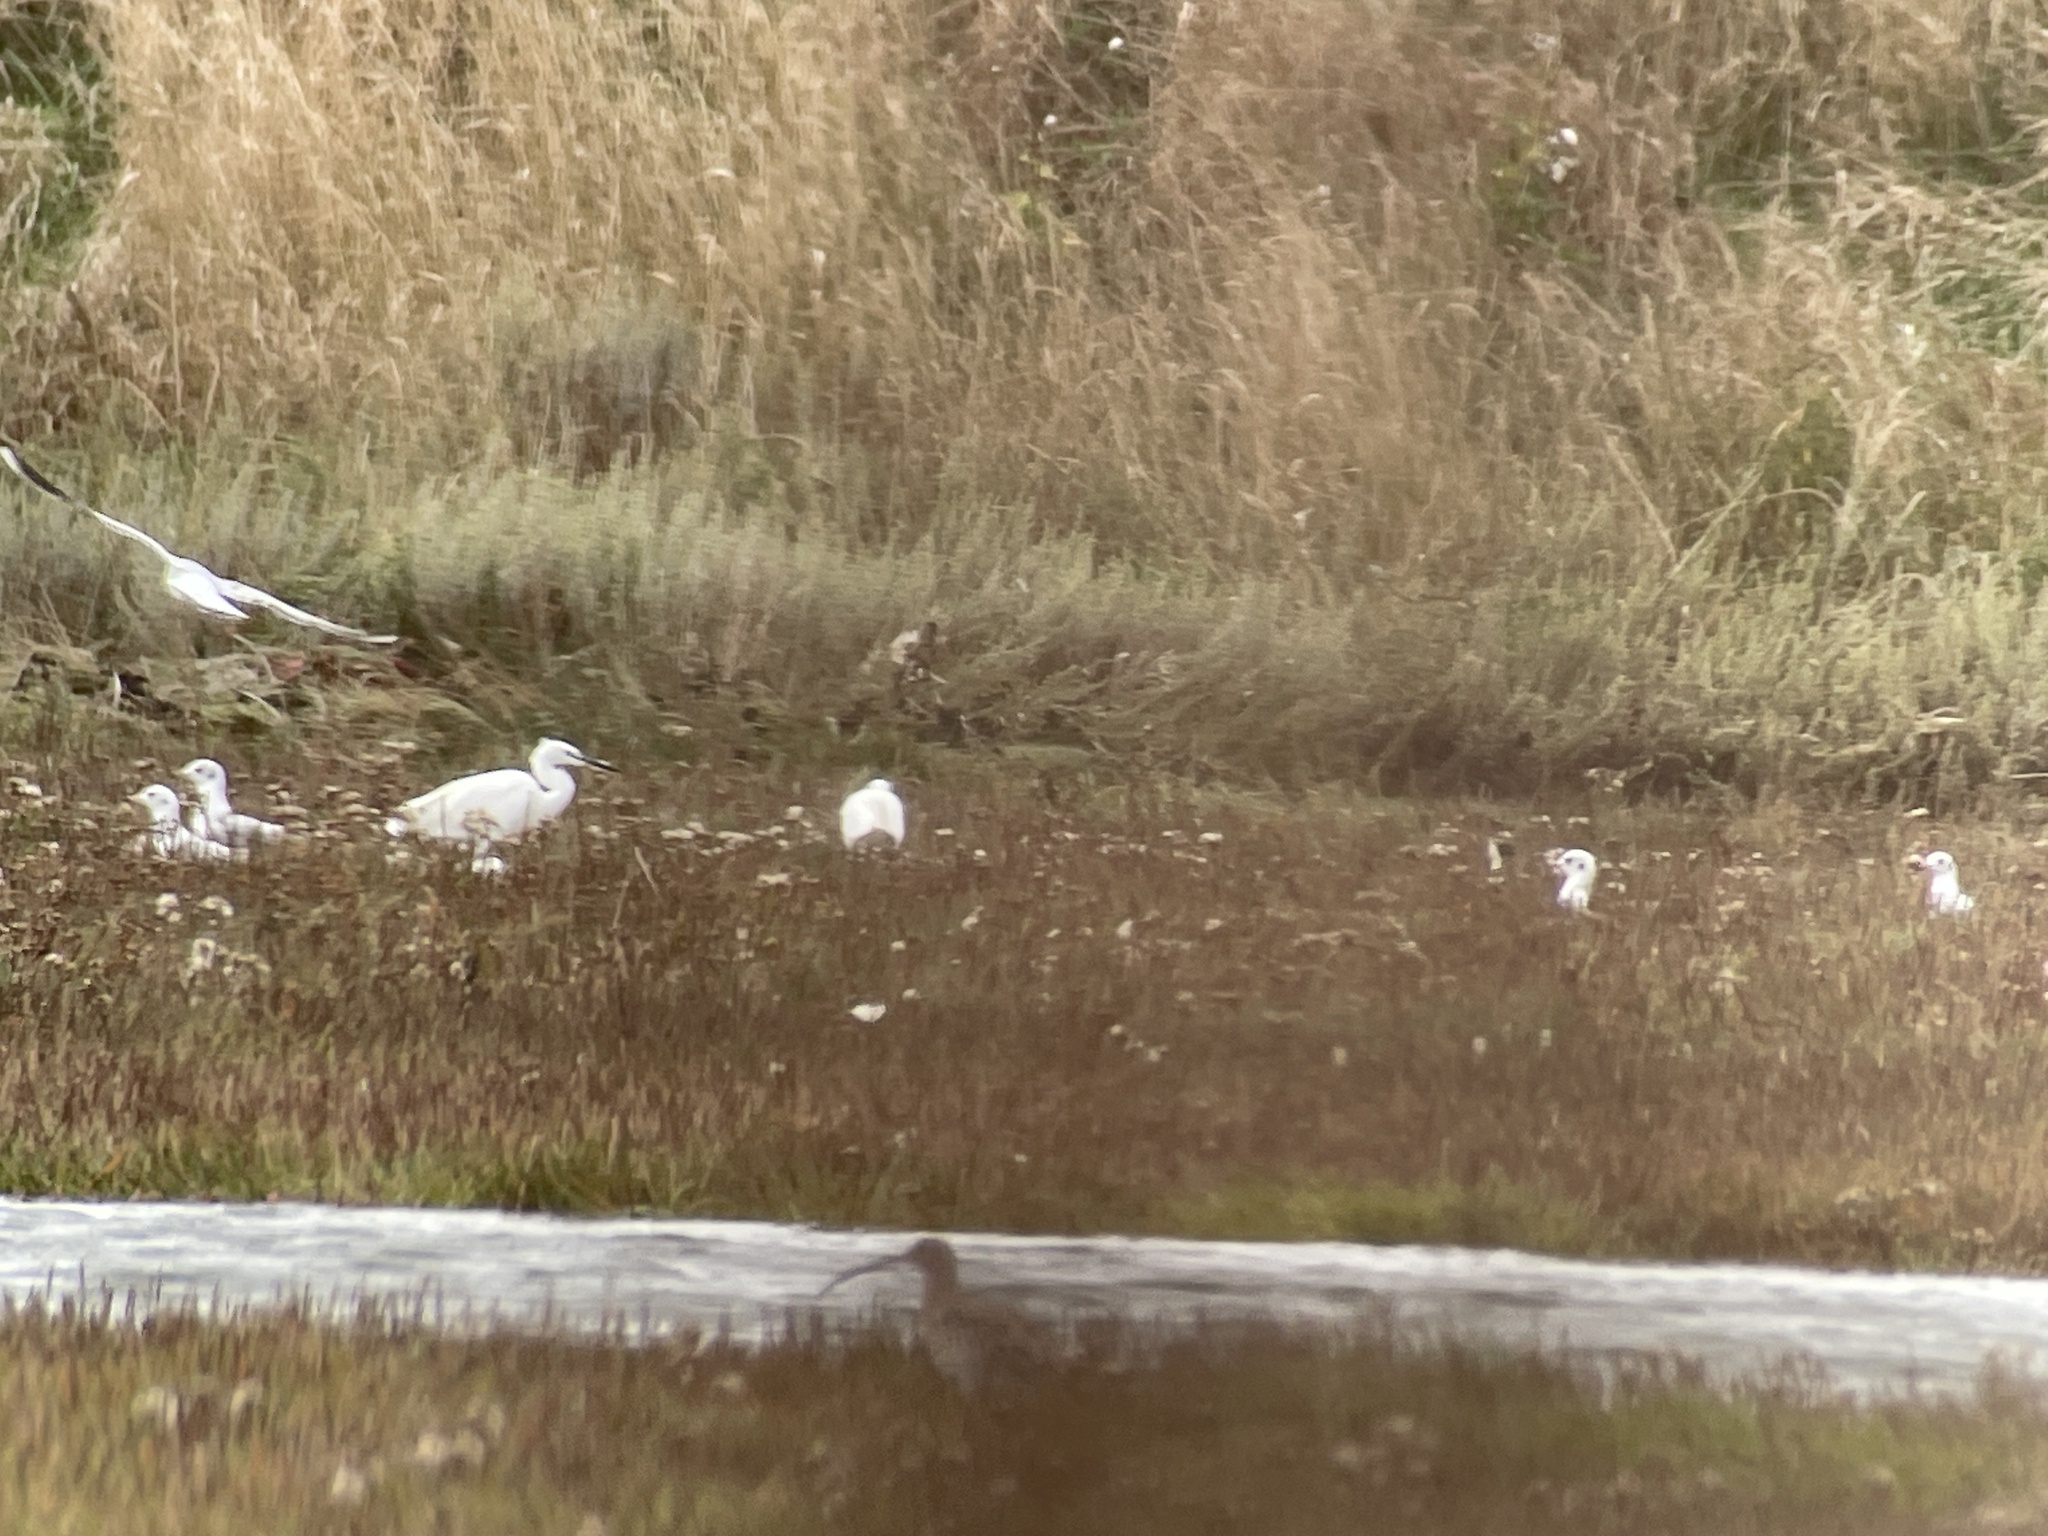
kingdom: Animalia
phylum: Chordata
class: Aves
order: Pelecaniformes
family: Ardeidae
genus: Egretta
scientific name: Egretta garzetta
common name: Little egret
